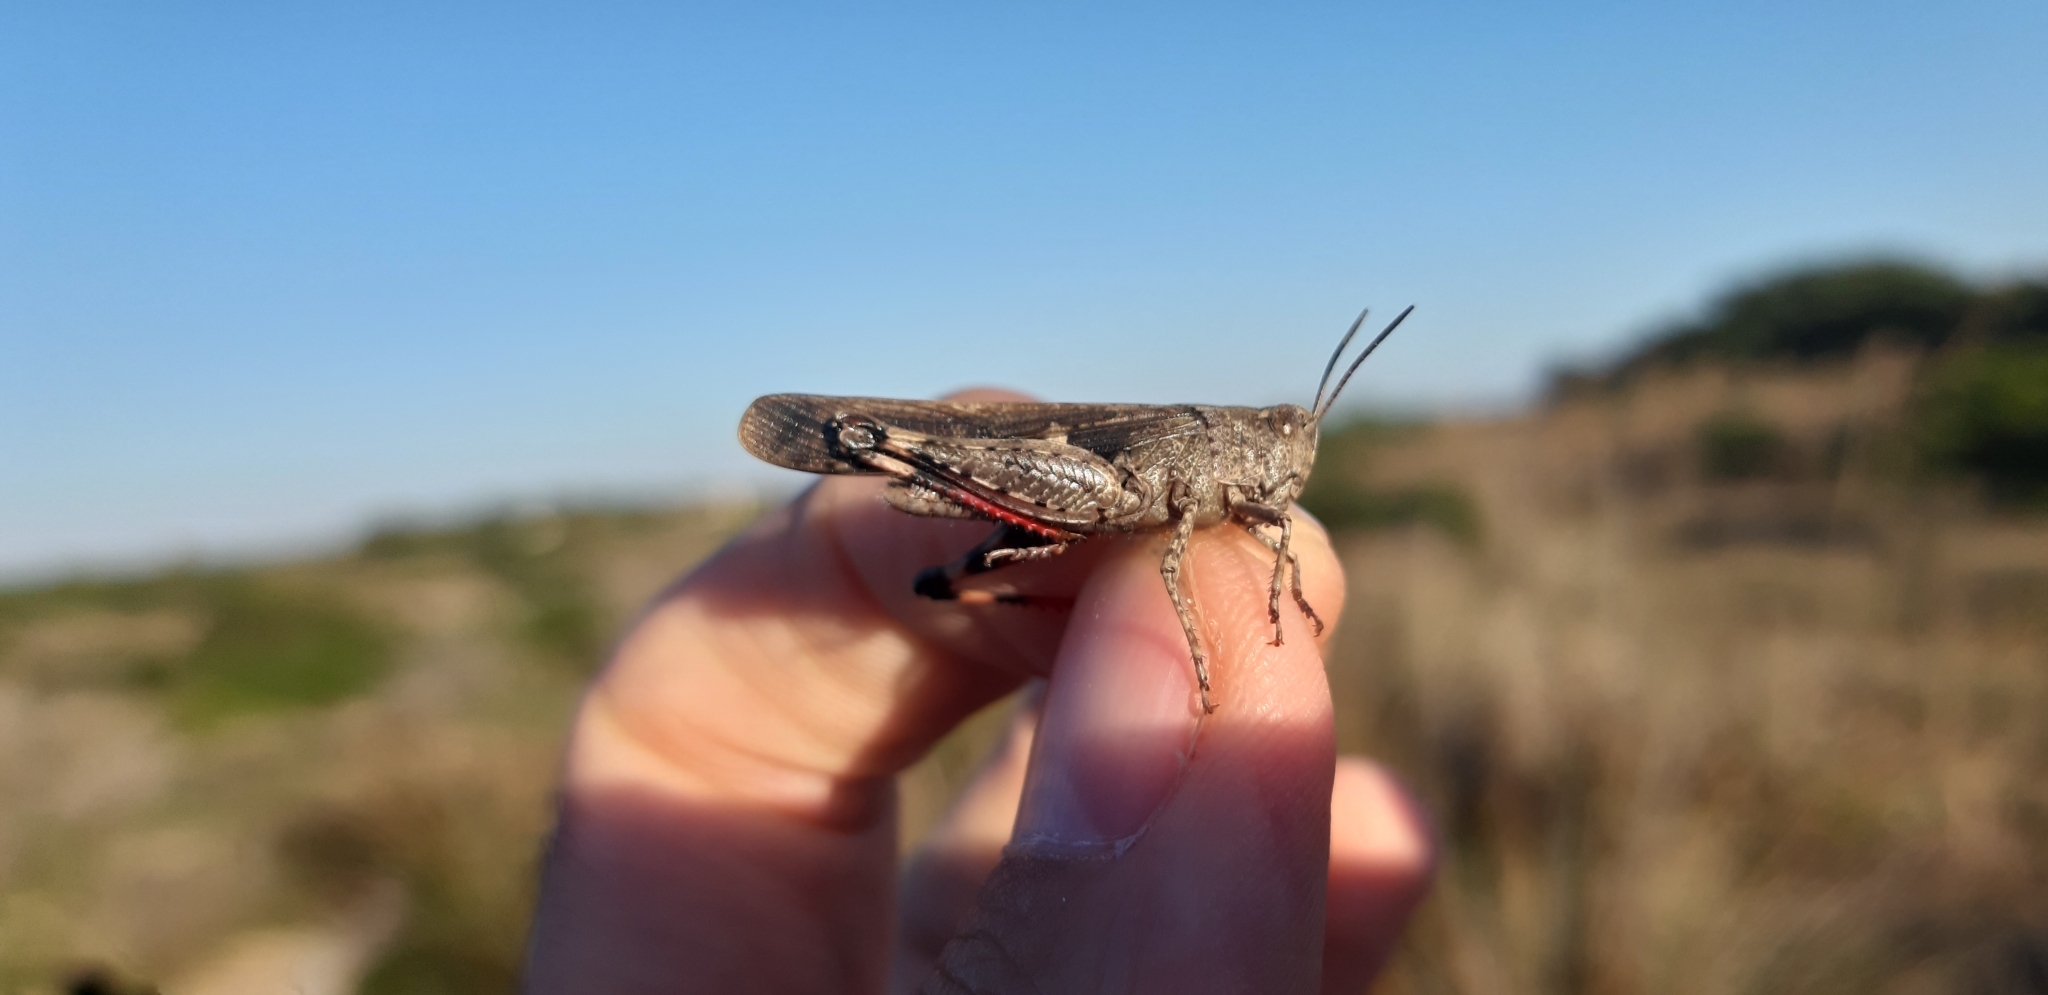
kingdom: Animalia
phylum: Arthropoda
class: Insecta
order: Orthoptera
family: Acrididae
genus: Aiolopus
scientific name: Aiolopus strepens
